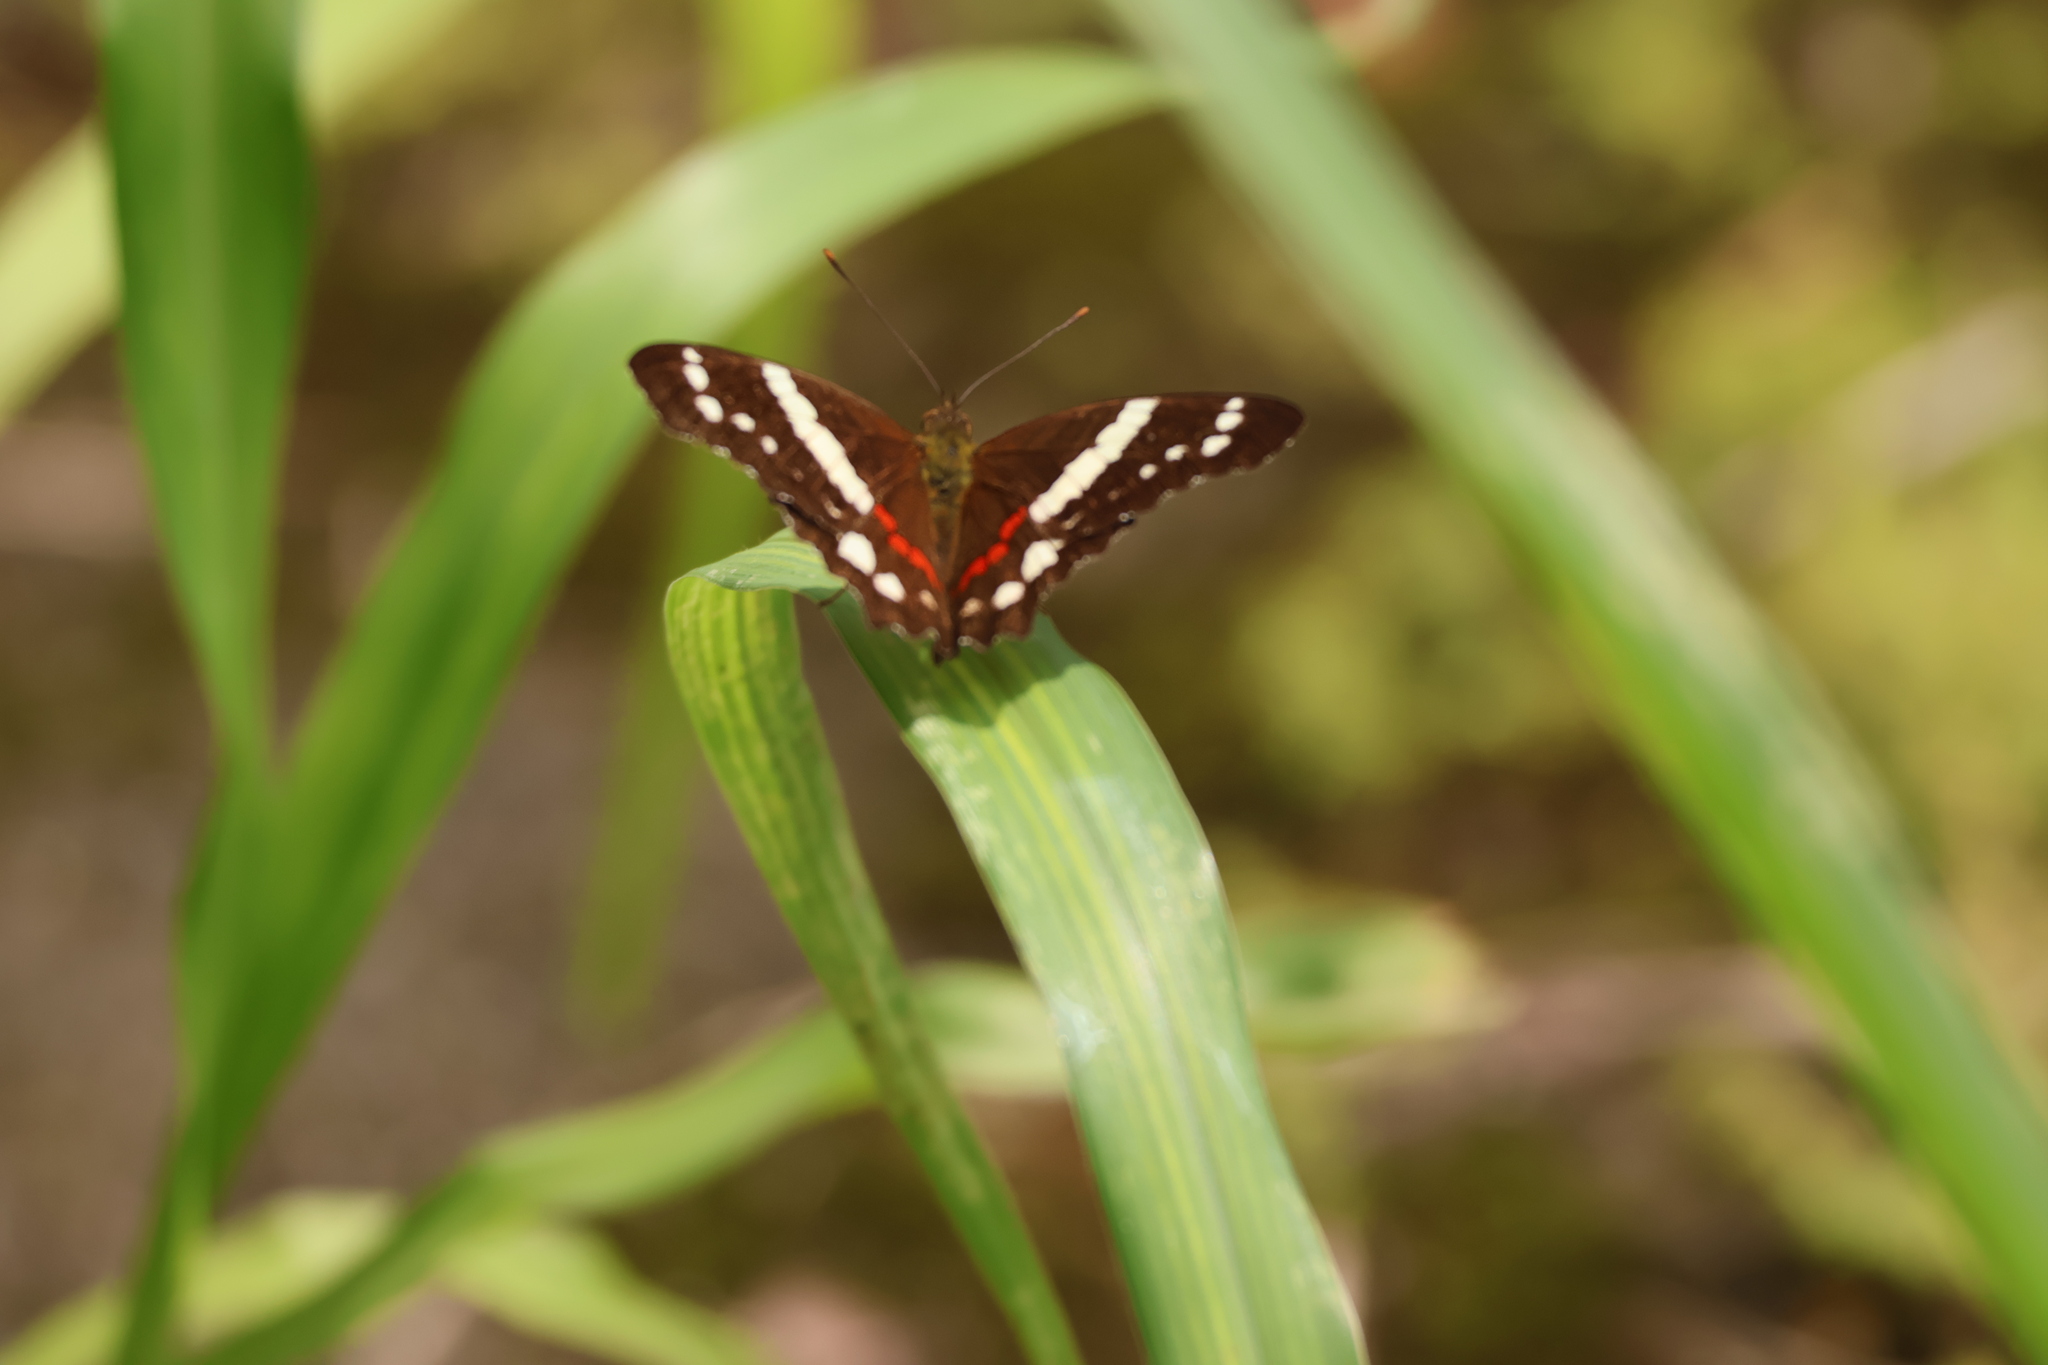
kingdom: Animalia
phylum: Arthropoda
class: Insecta
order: Lepidoptera
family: Nymphalidae
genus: Anartia
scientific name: Anartia fatima
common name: Banded peacock
